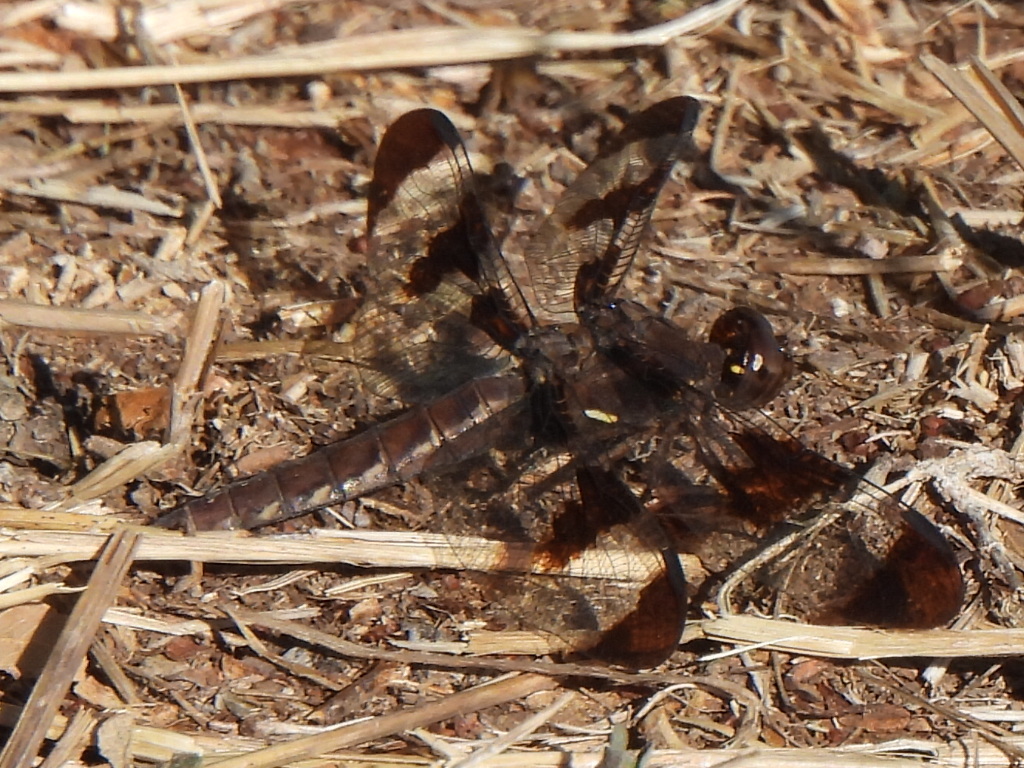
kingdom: Animalia
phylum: Arthropoda
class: Insecta
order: Odonata
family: Libellulidae
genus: Plathemis
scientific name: Plathemis lydia
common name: Common whitetail
